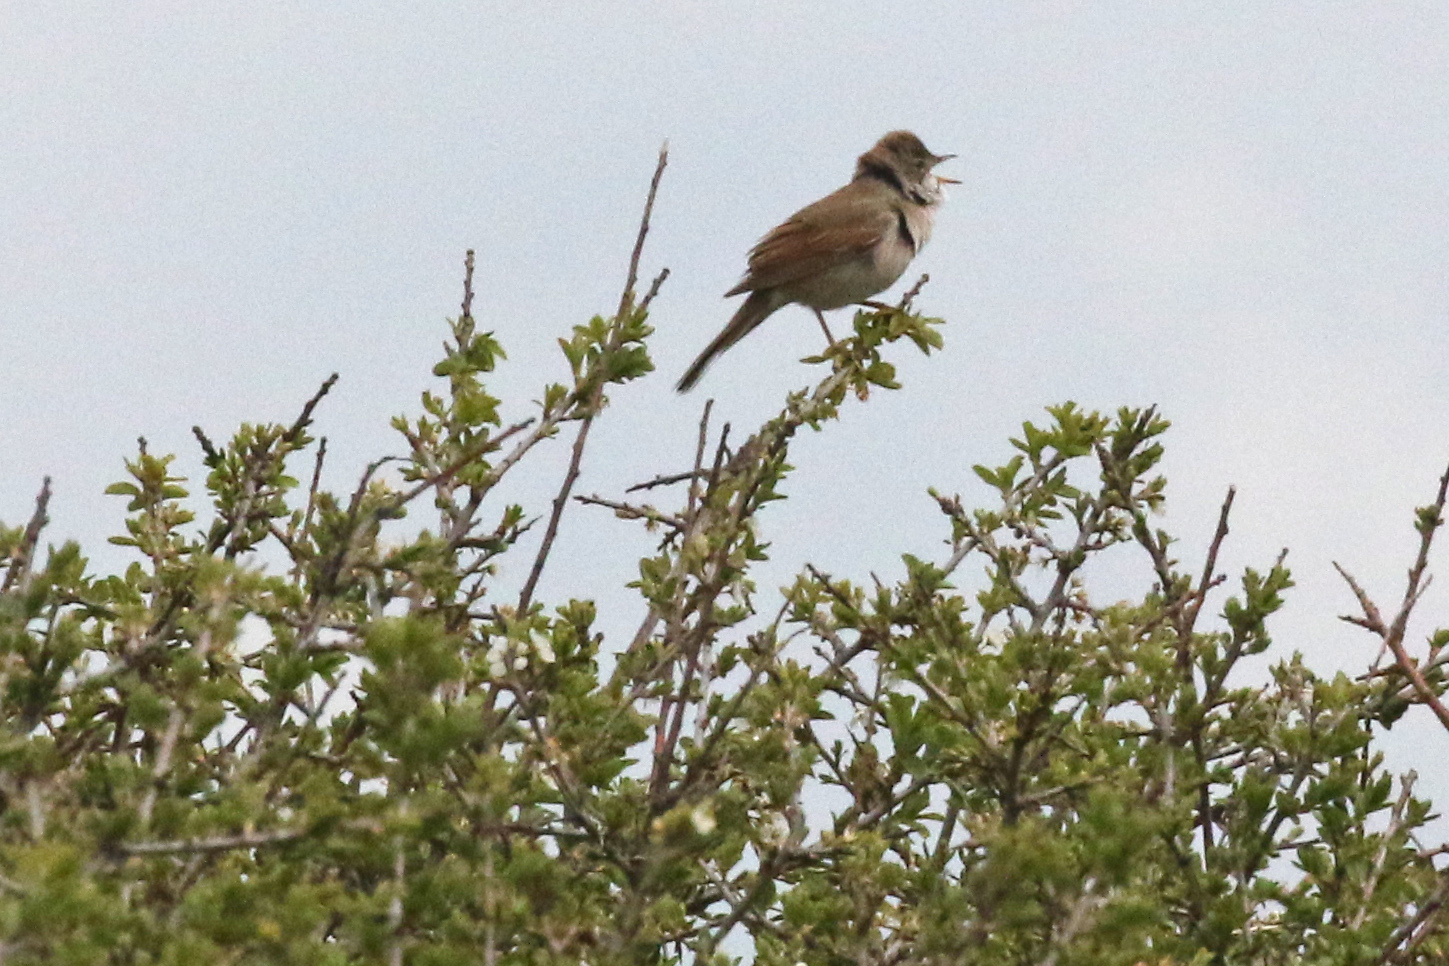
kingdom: Animalia
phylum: Chordata
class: Aves
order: Passeriformes
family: Sylviidae
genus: Sylvia
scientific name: Sylvia communis
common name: Common whitethroat
